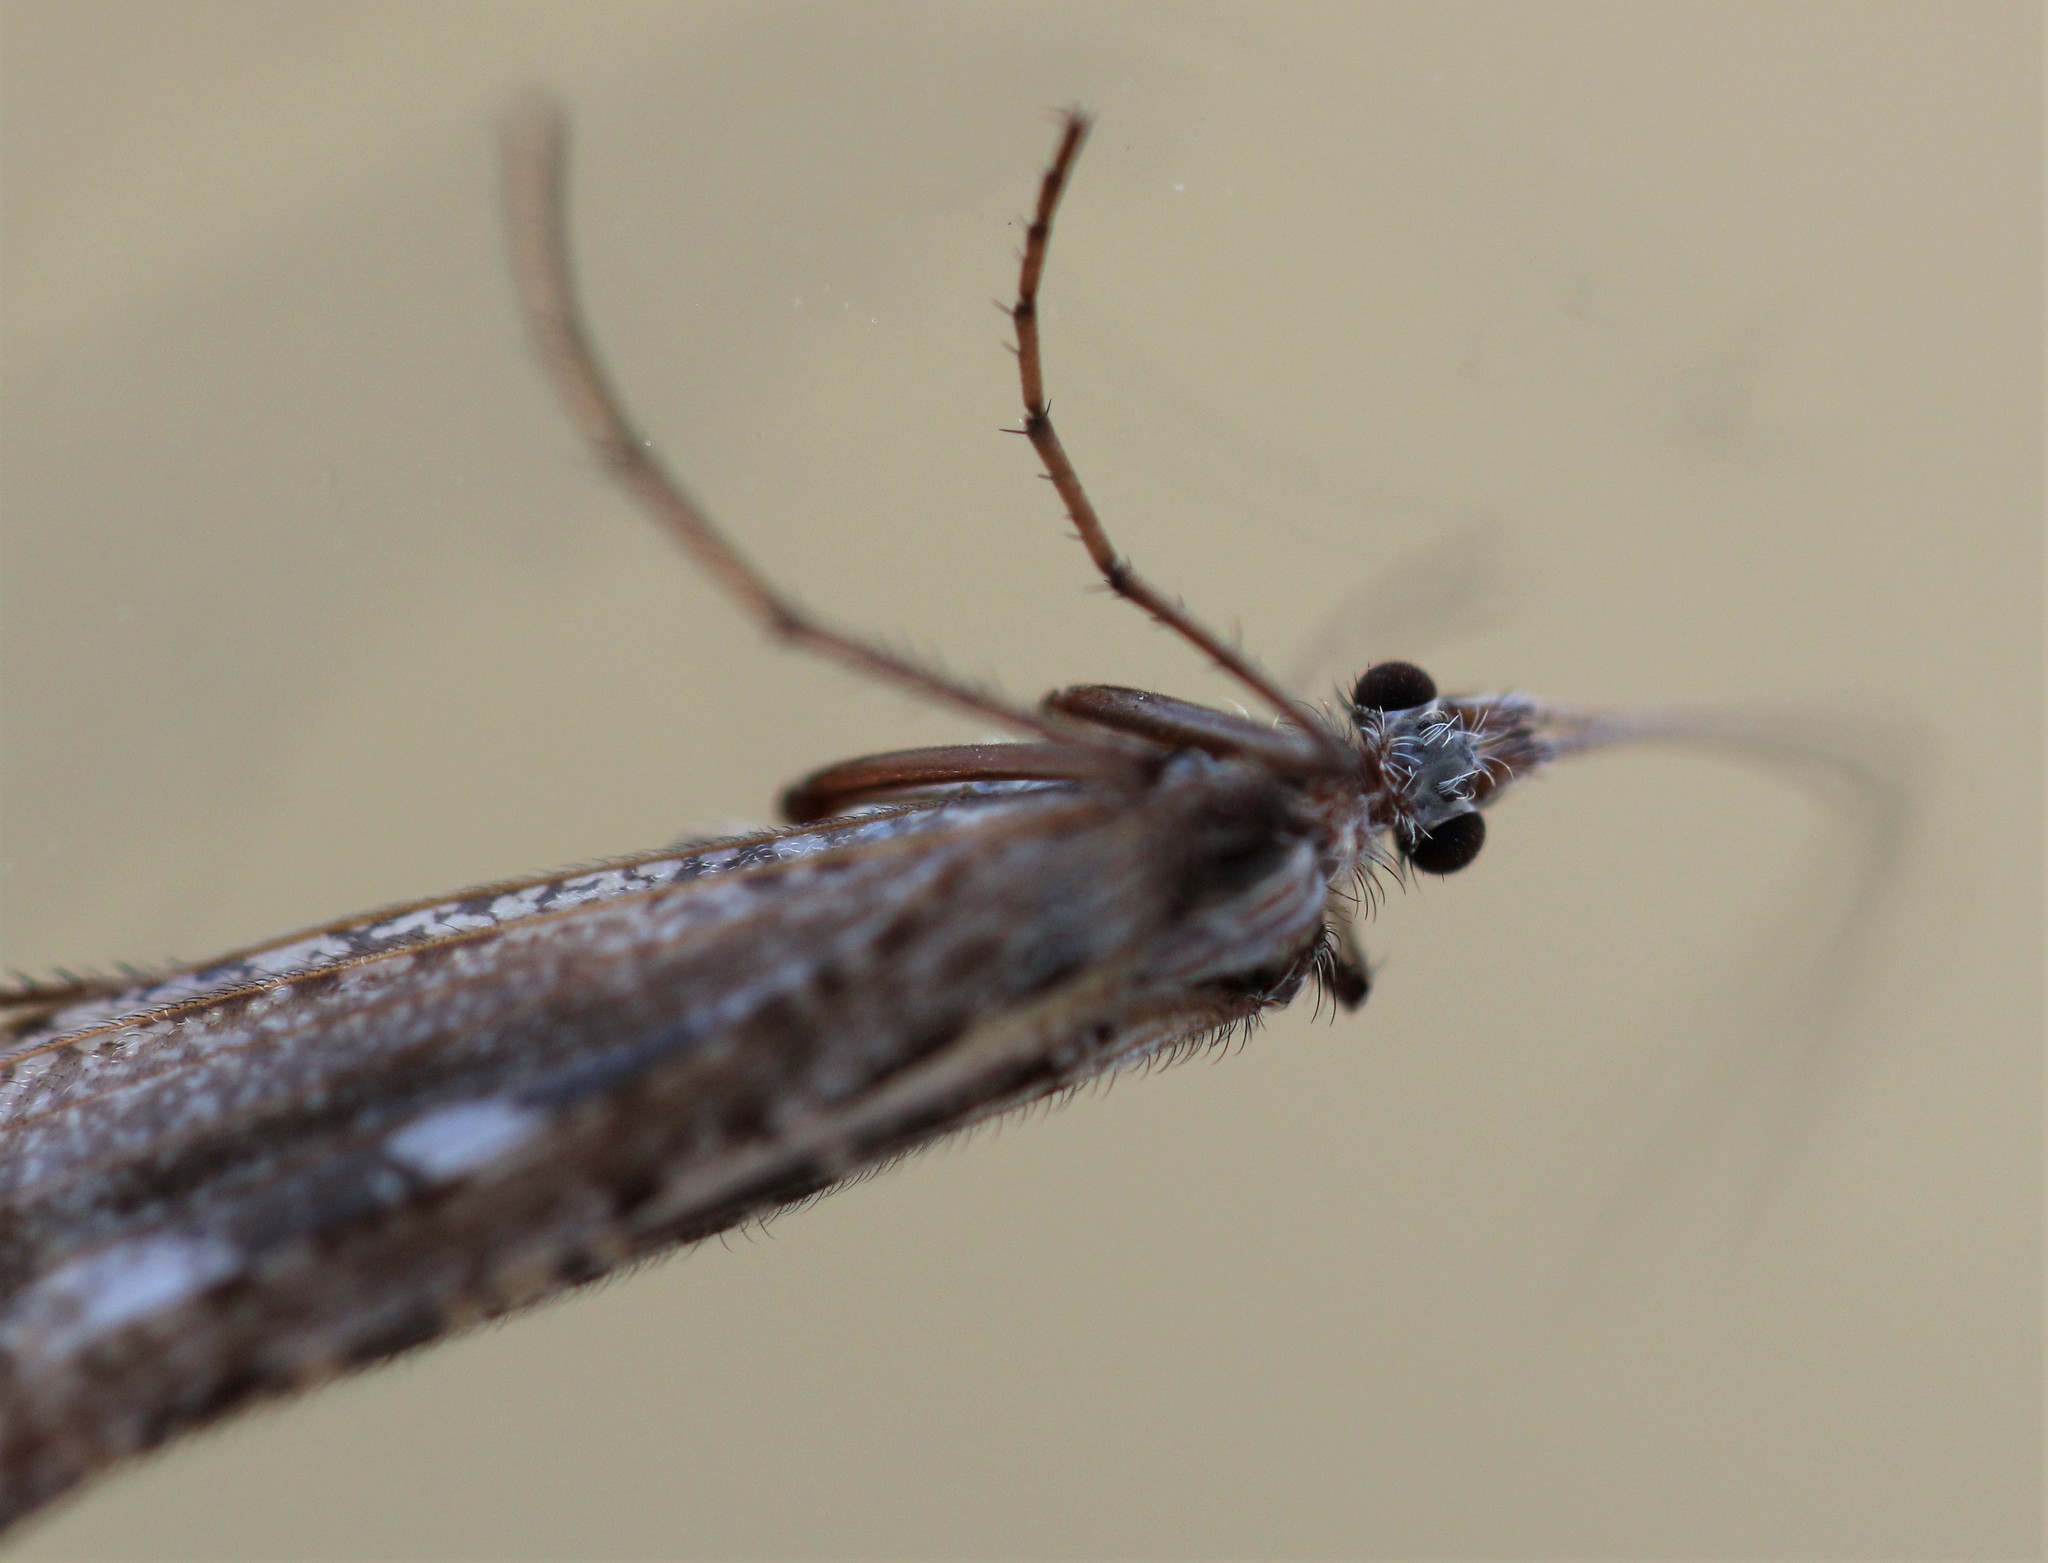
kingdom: Animalia
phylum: Arthropoda
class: Insecta
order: Trichoptera
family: Limnephilidae
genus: Glyphopsyche
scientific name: Glyphopsyche irrorata
